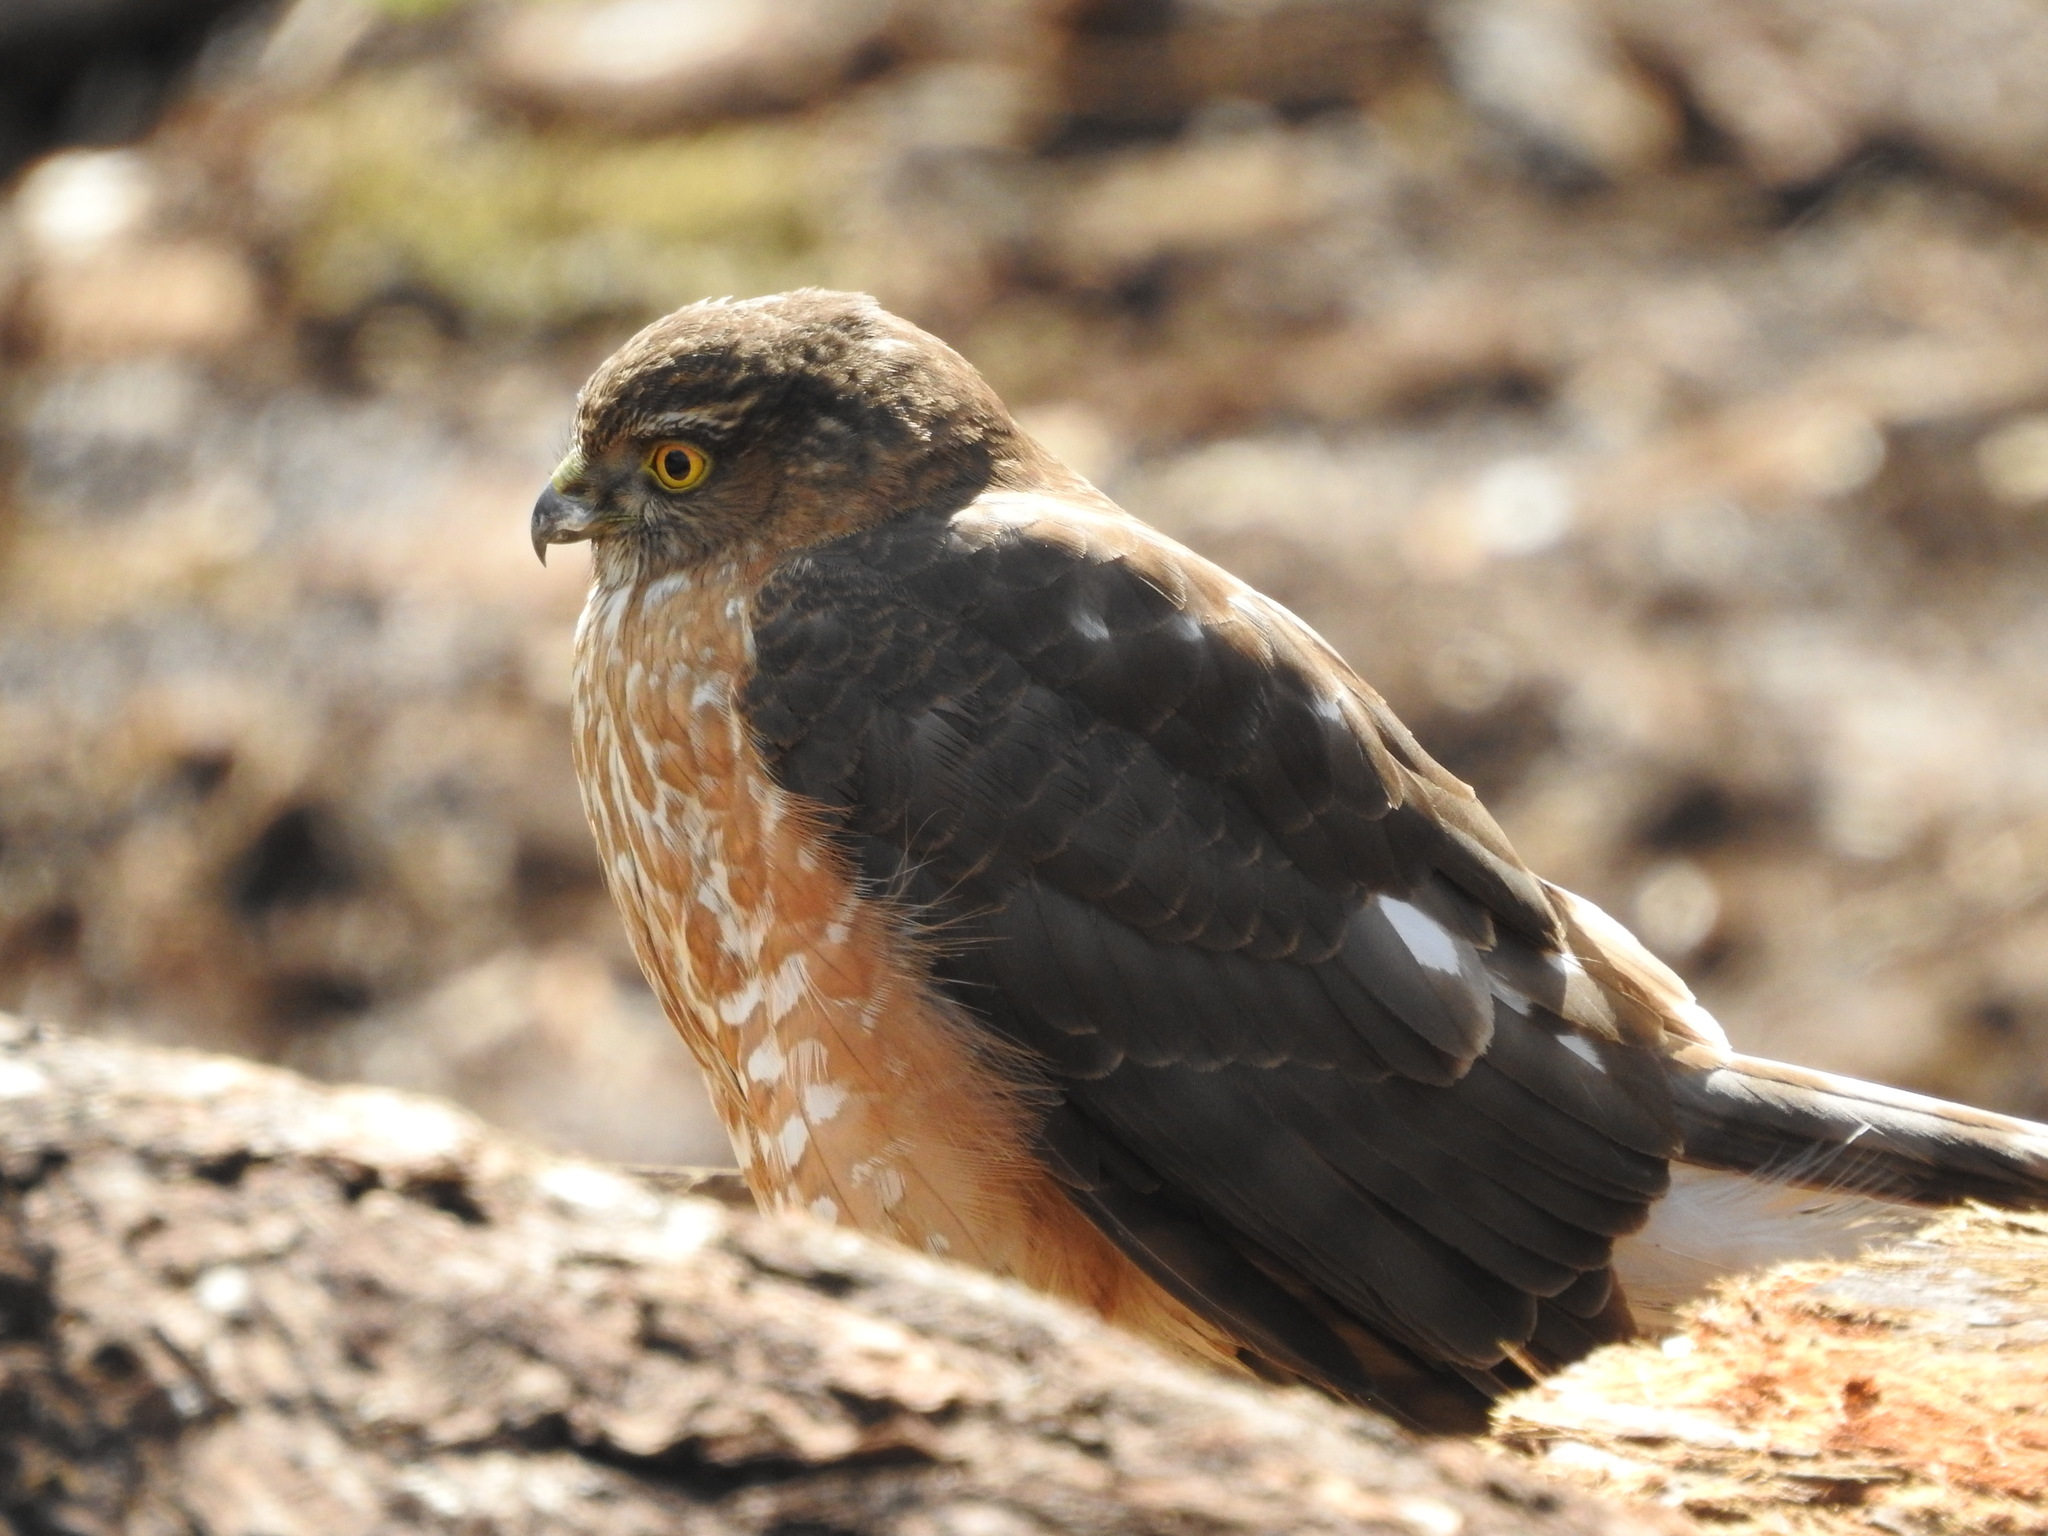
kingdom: Animalia
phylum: Chordata
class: Aves
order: Accipitriformes
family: Accipitridae
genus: Accipiter
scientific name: Accipiter striatus
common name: Sharp-shinned hawk
